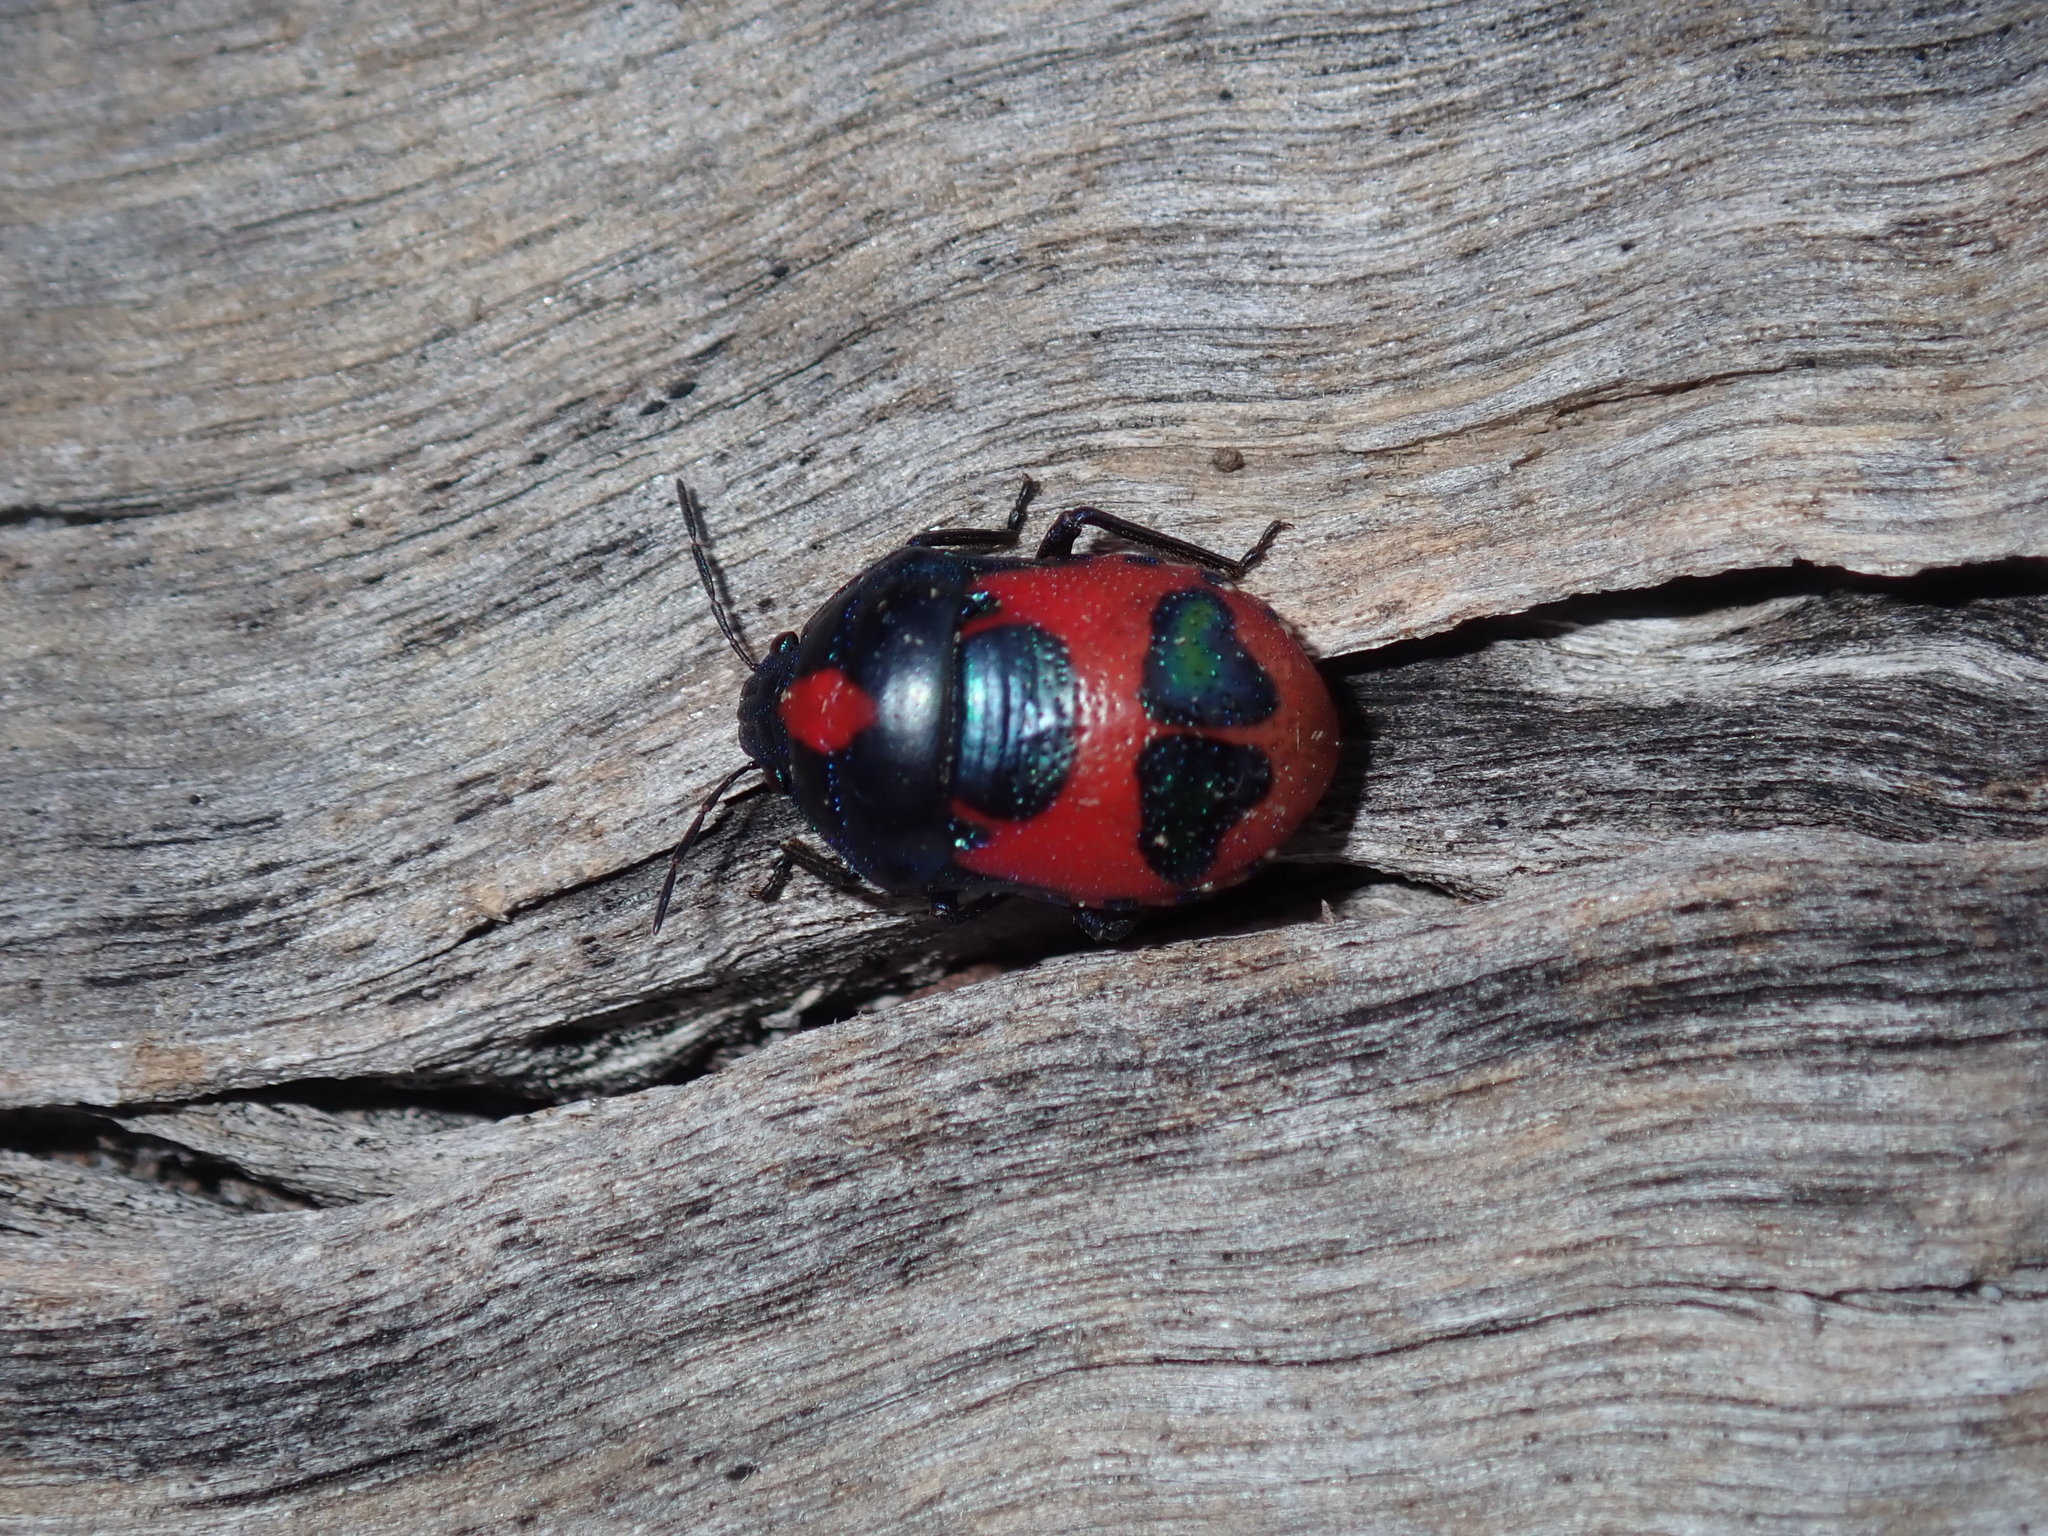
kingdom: Animalia
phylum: Arthropoda
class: Insecta
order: Hemiptera
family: Scutelleridae
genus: Choerocoris
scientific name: Choerocoris paganus
